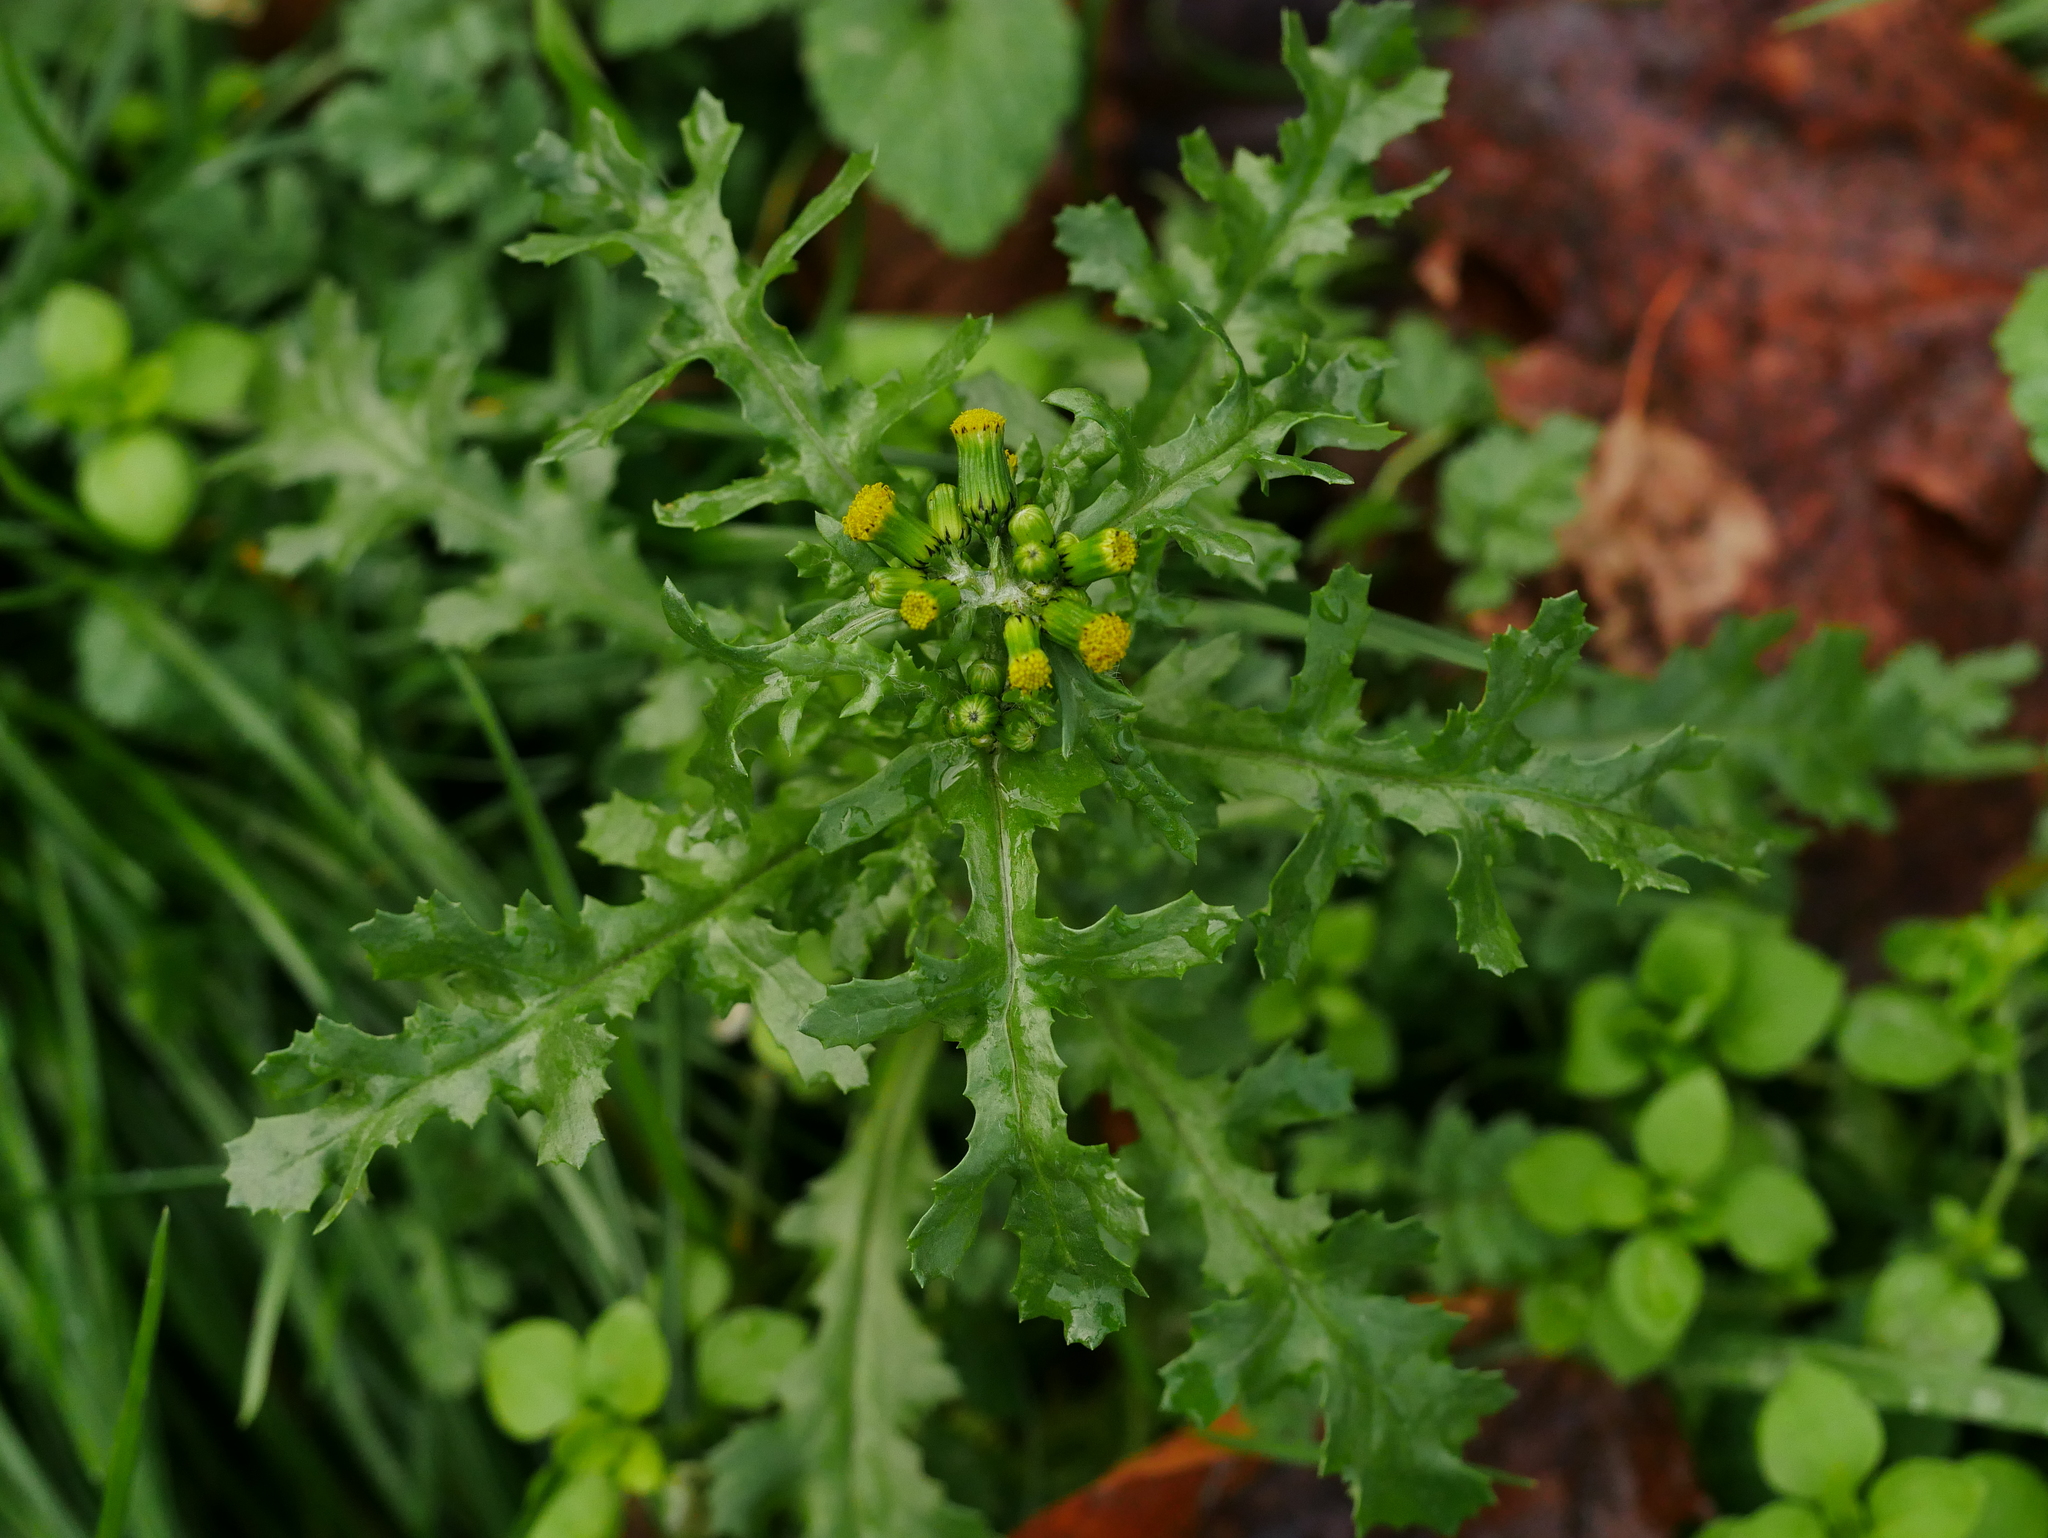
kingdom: Plantae
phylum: Tracheophyta
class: Magnoliopsida
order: Asterales
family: Asteraceae
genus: Senecio
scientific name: Senecio vulgaris
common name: Old-man-in-the-spring
